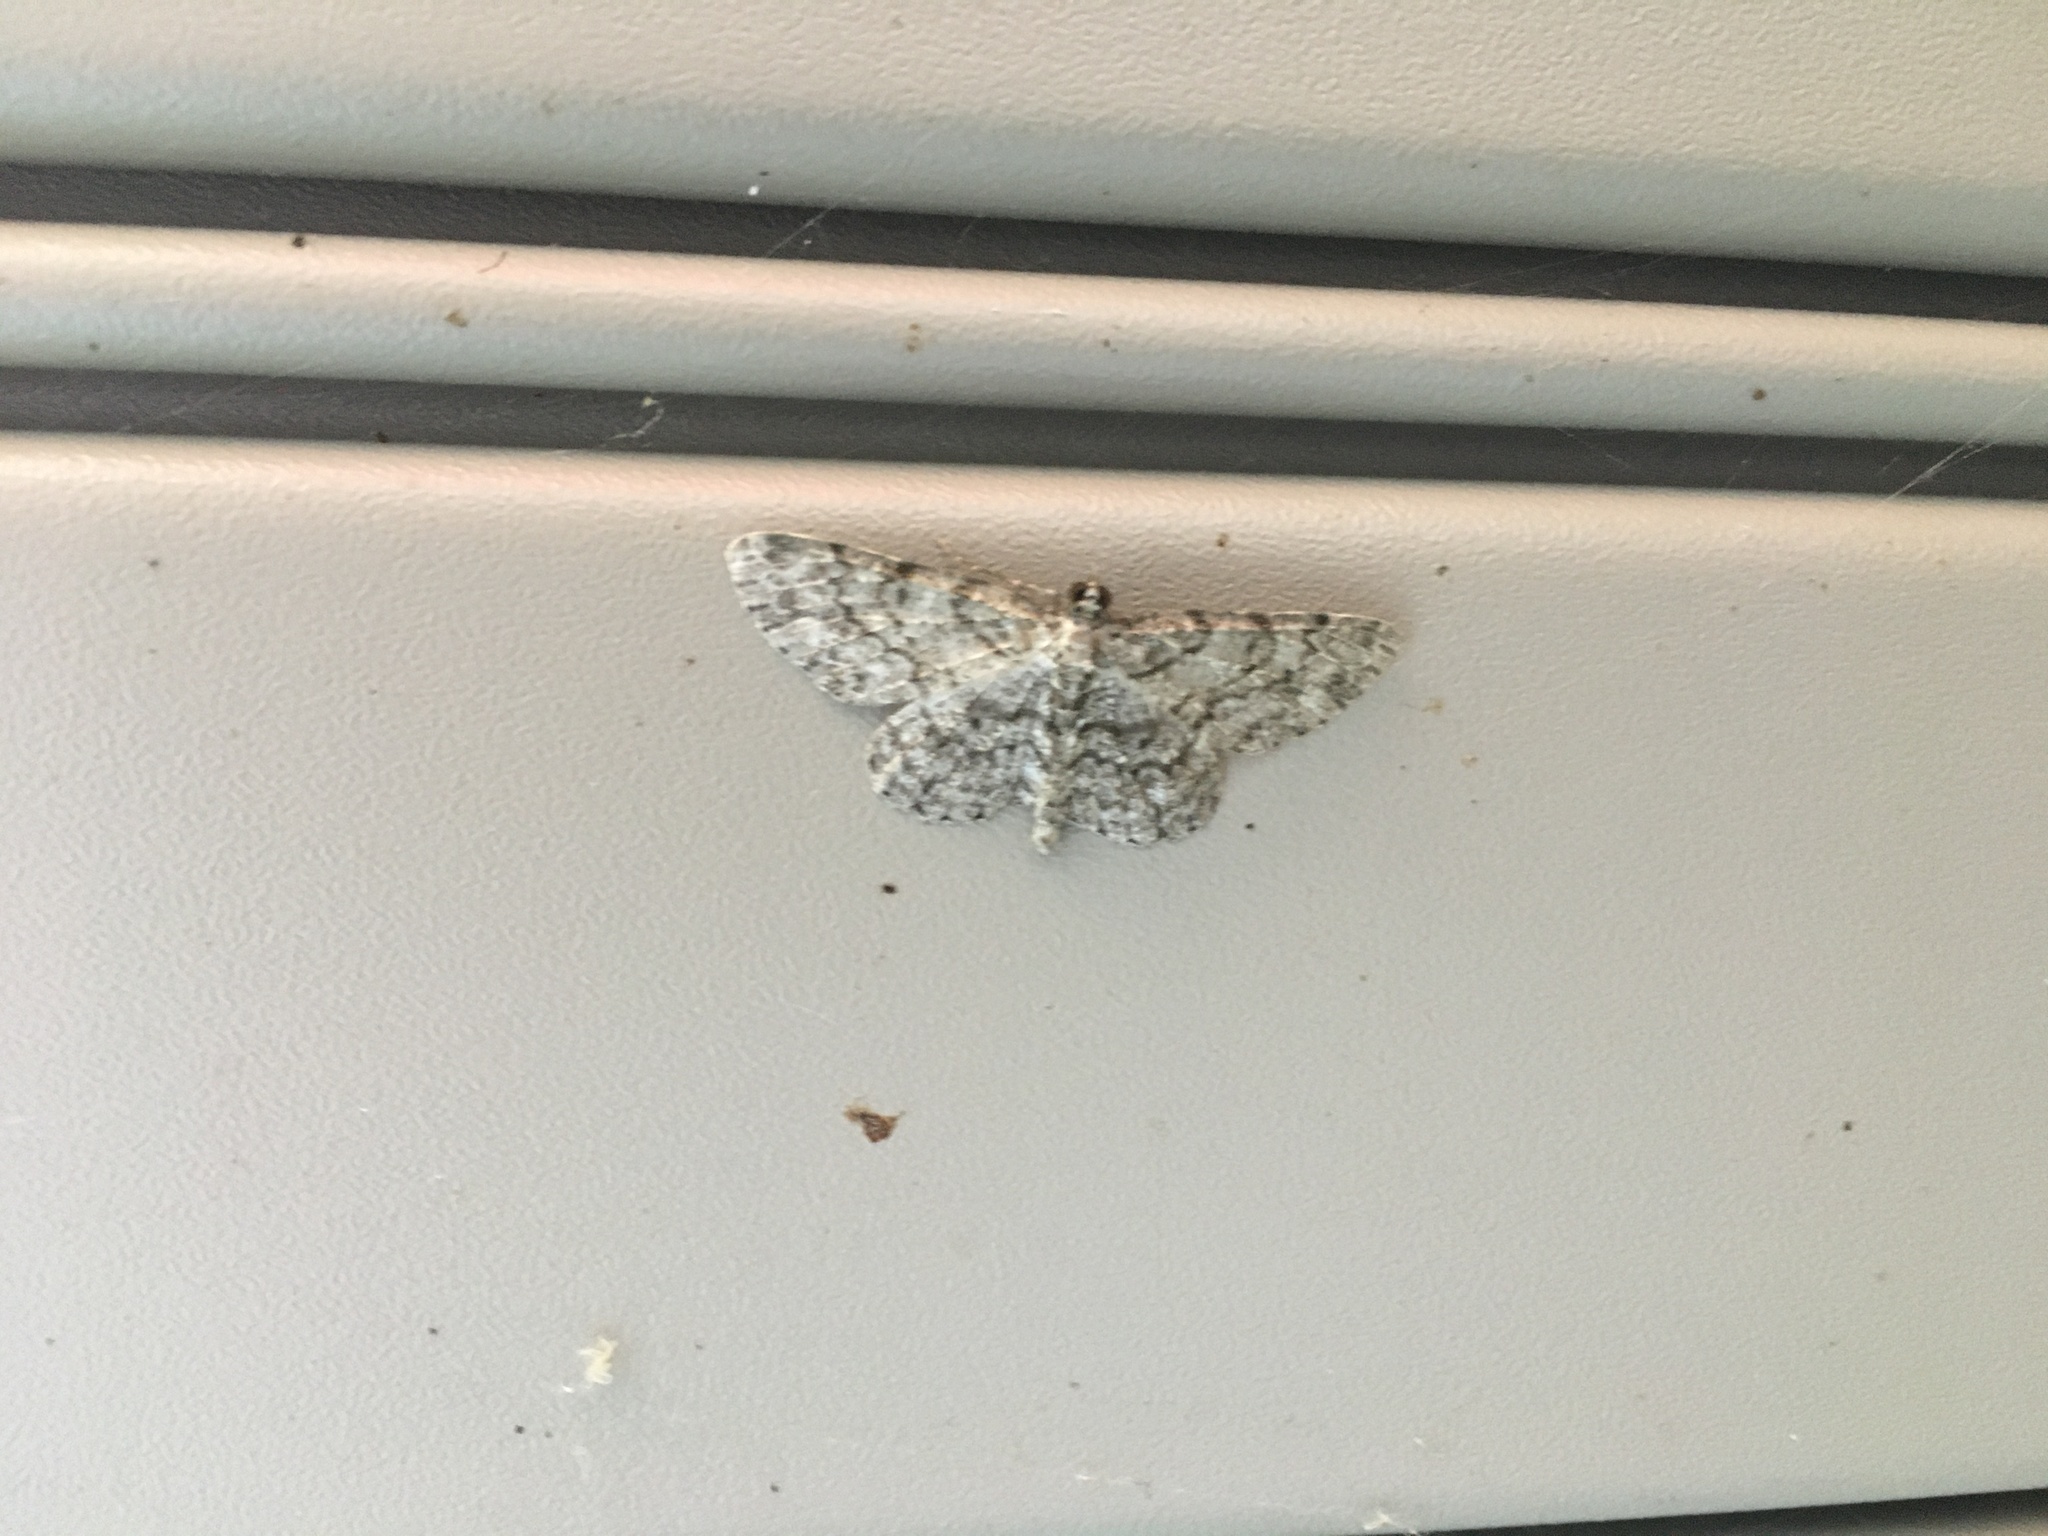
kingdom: Animalia
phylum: Arthropoda
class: Insecta
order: Lepidoptera
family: Geometridae
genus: Protoboarmia
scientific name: Protoboarmia porcelaria
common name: Porcelain gray
